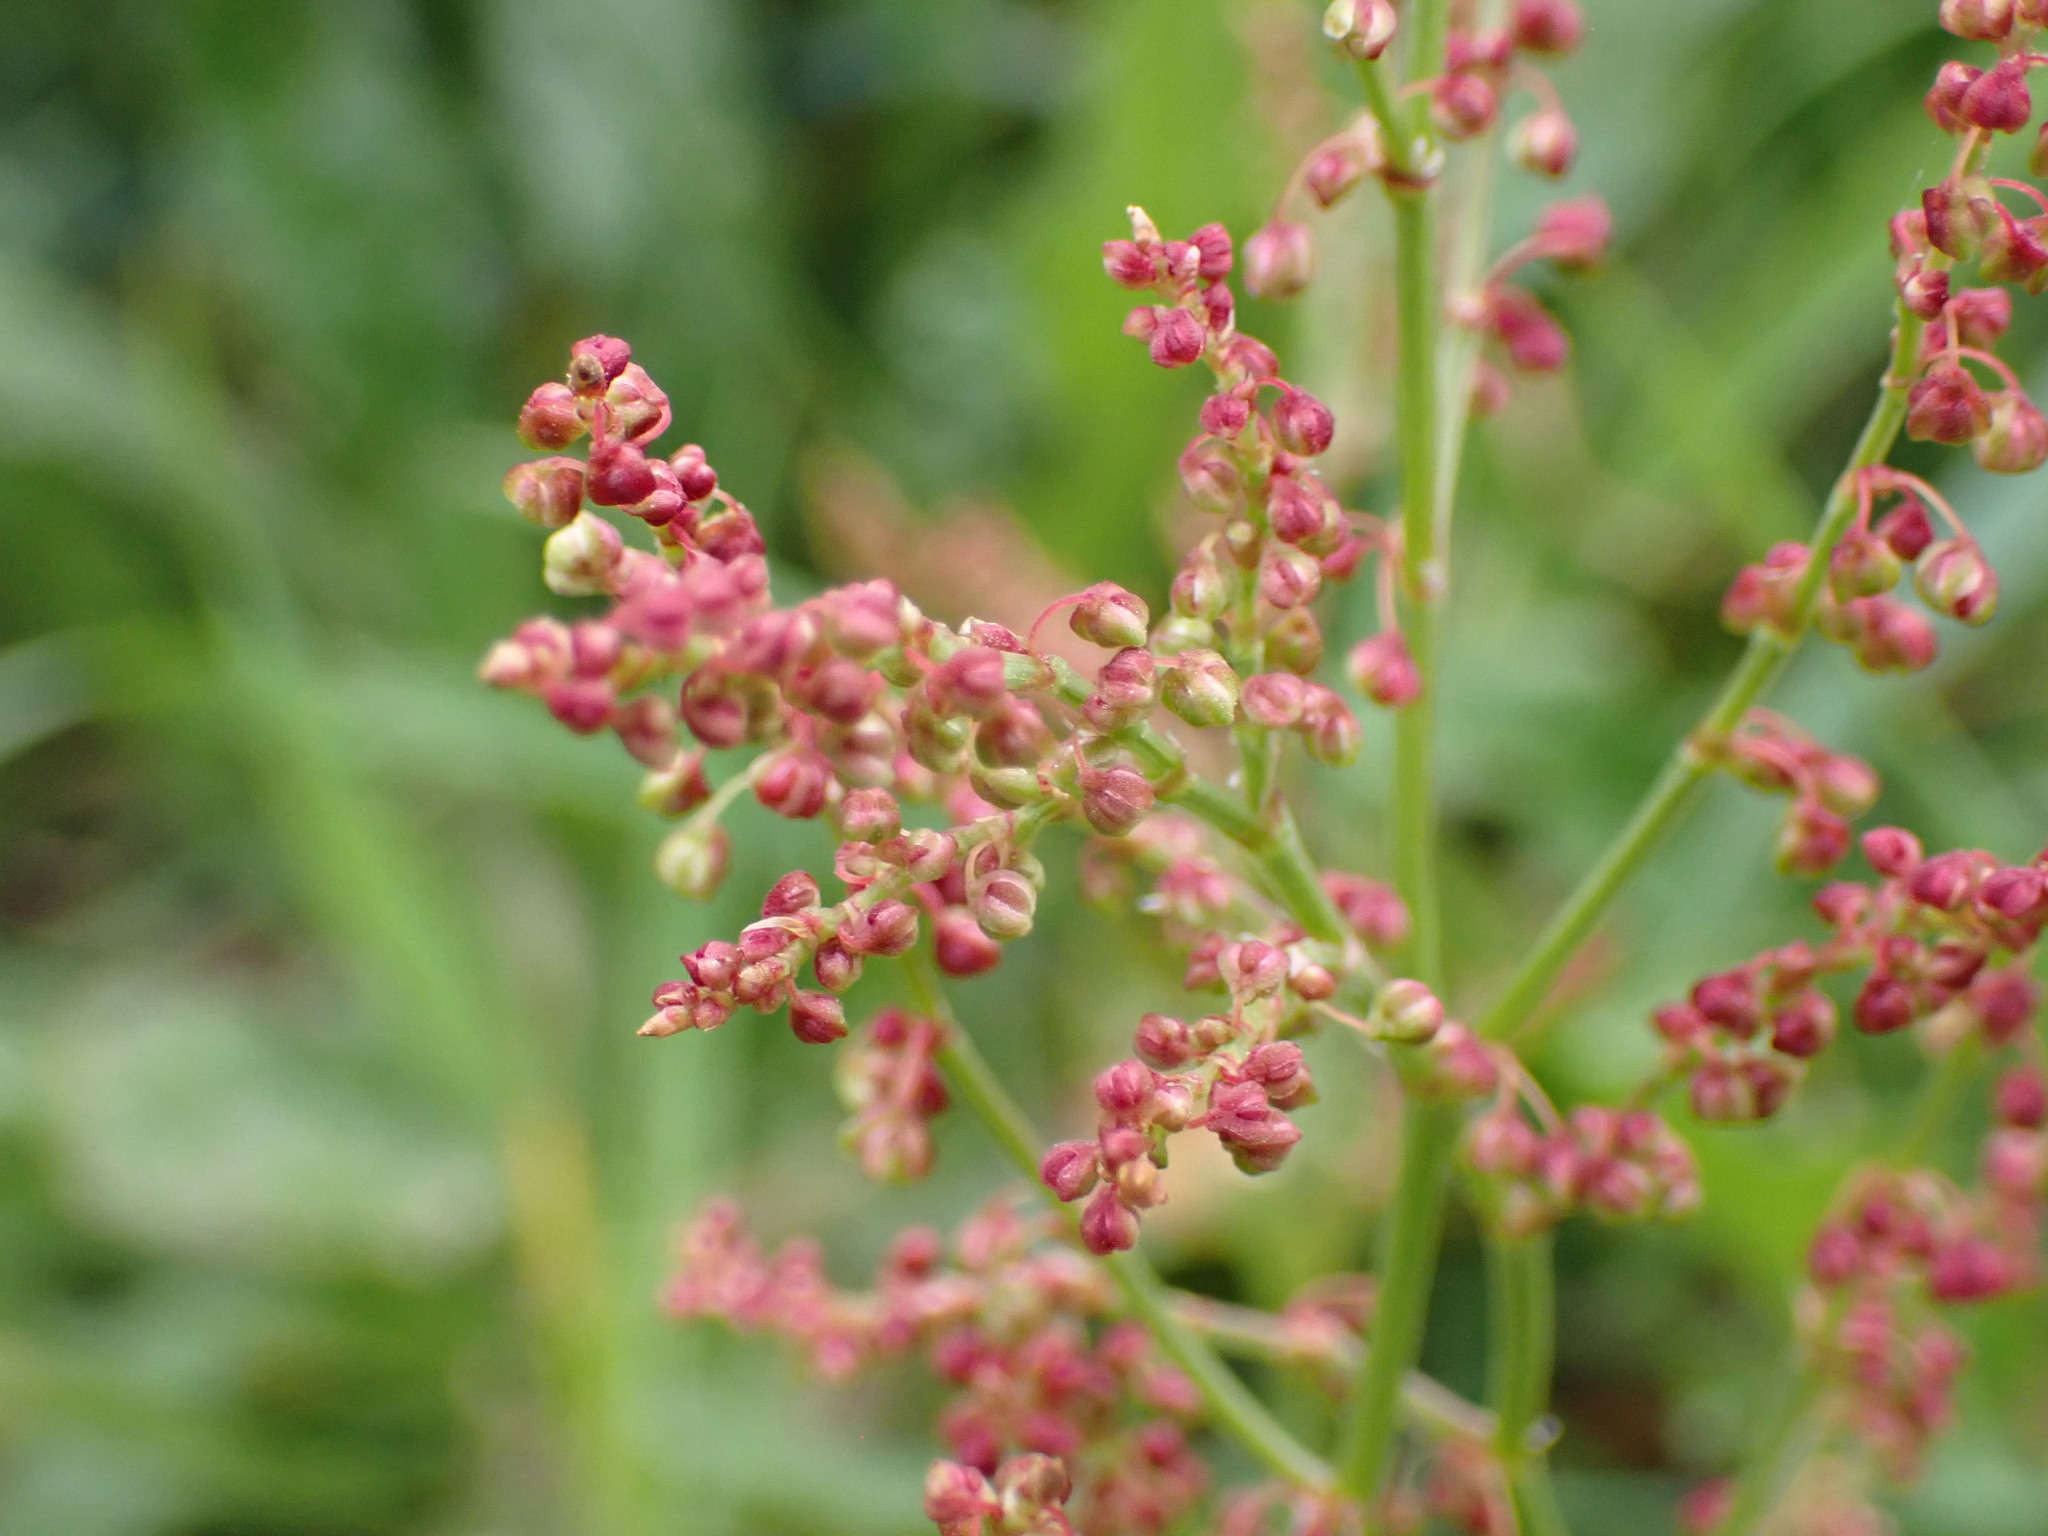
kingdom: Plantae
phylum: Tracheophyta
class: Magnoliopsida
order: Caryophyllales
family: Polygonaceae
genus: Rumex
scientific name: Rumex acetosella
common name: Common sheep sorrel
